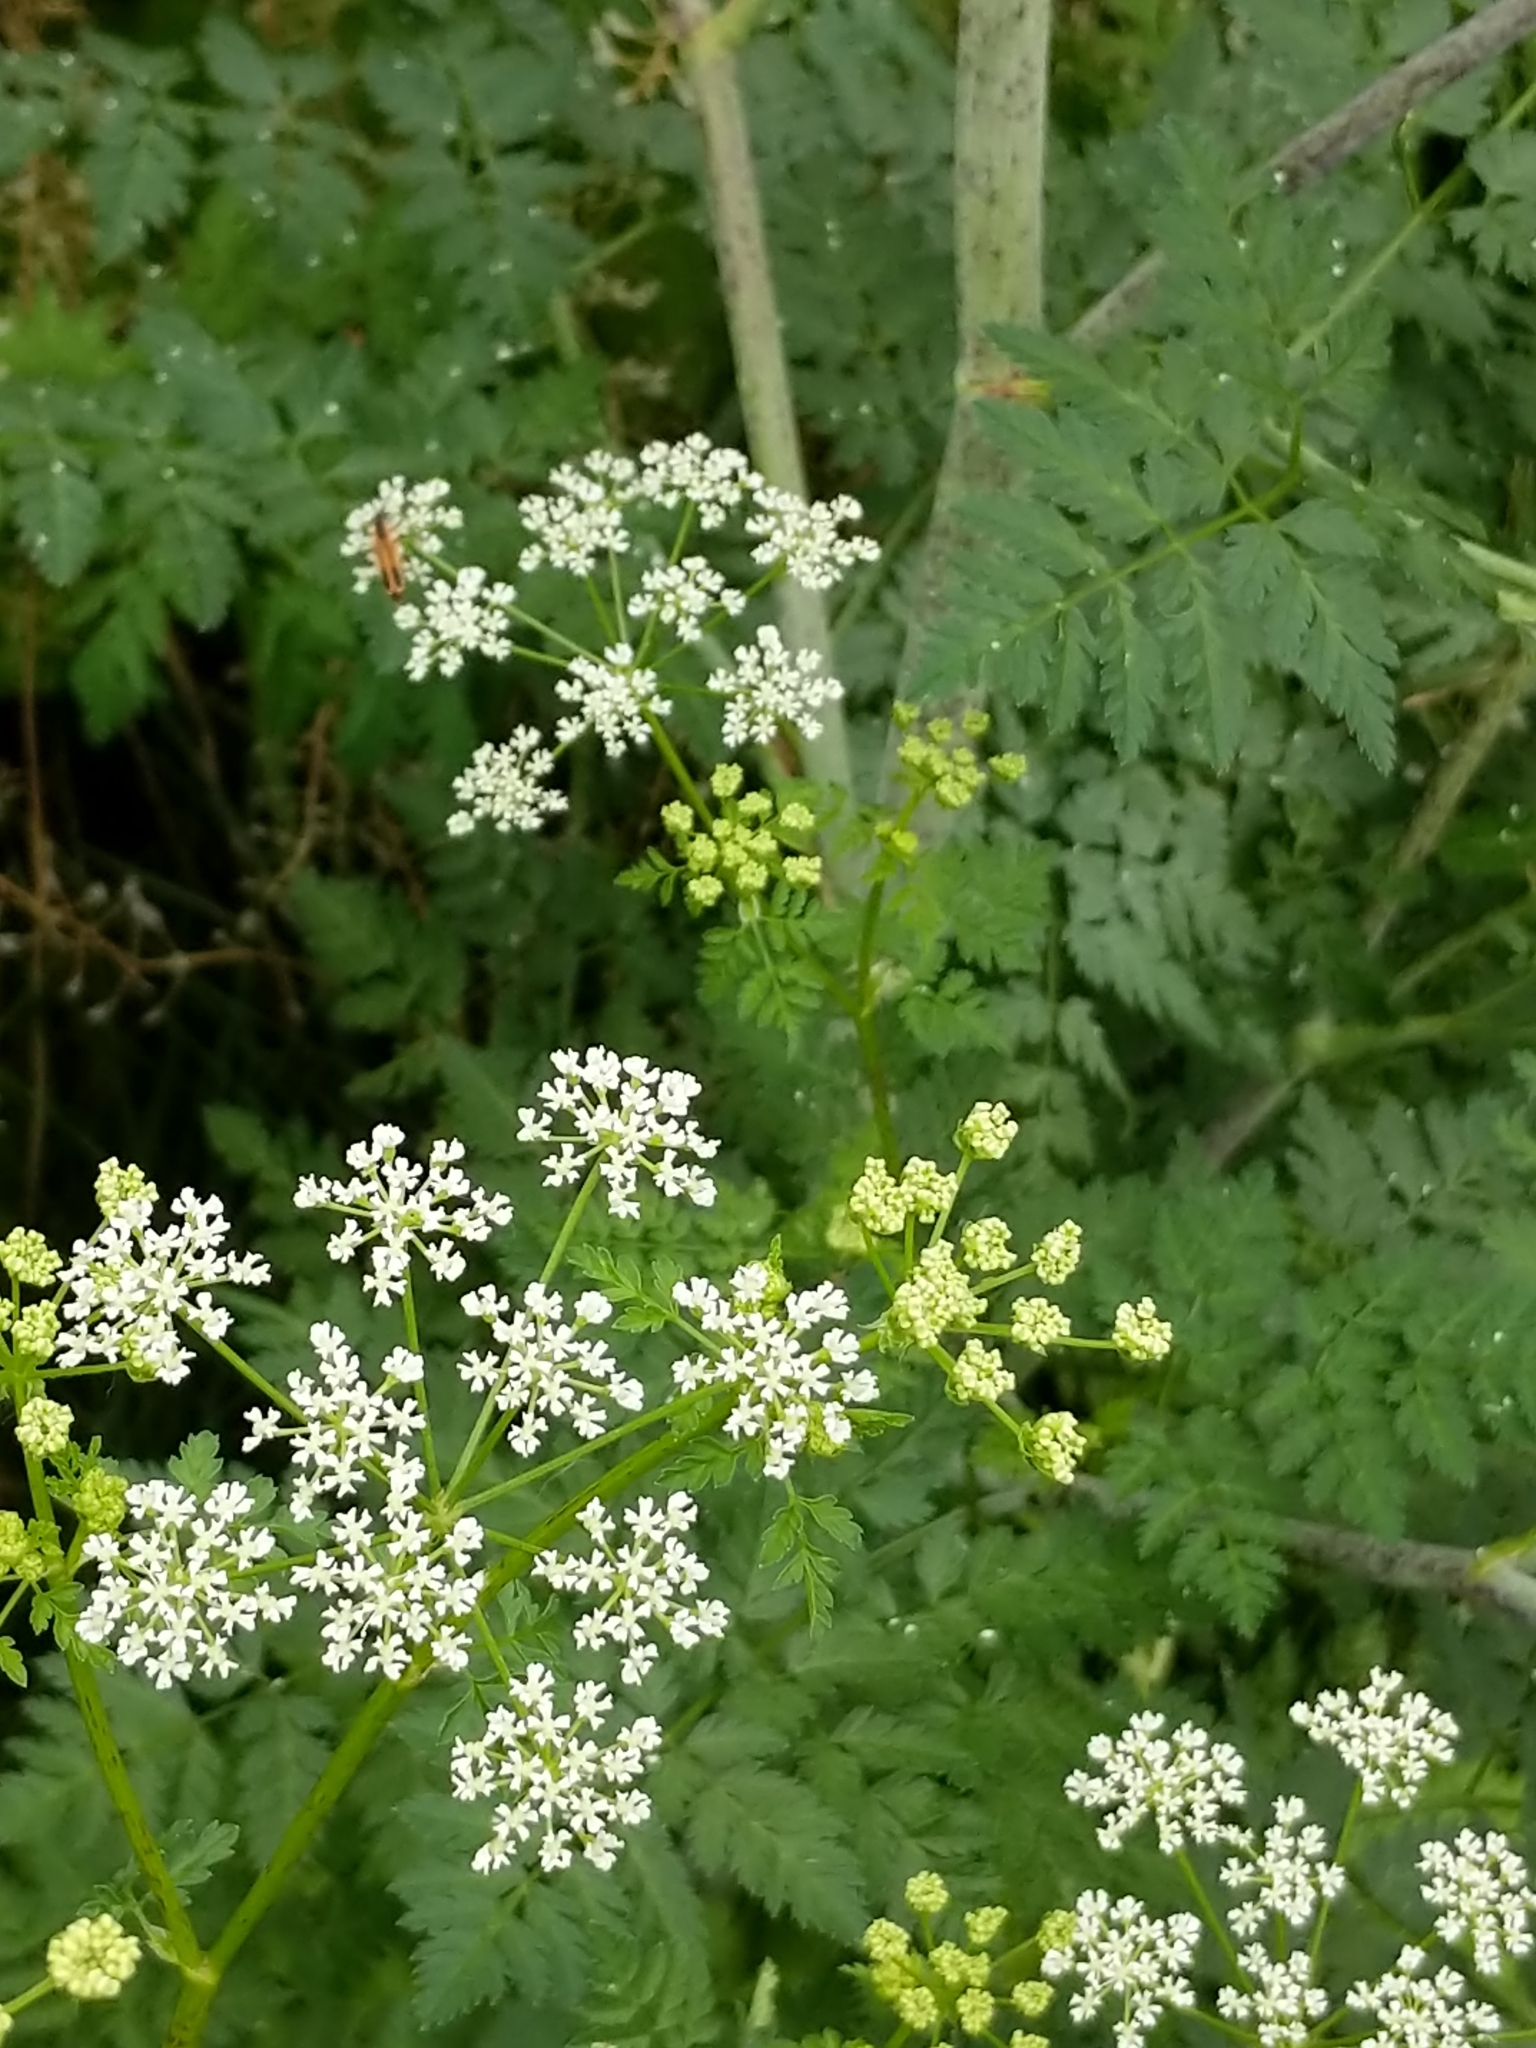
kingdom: Plantae
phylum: Tracheophyta
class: Magnoliopsida
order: Apiales
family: Apiaceae
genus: Conium
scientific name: Conium maculatum
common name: Hemlock
